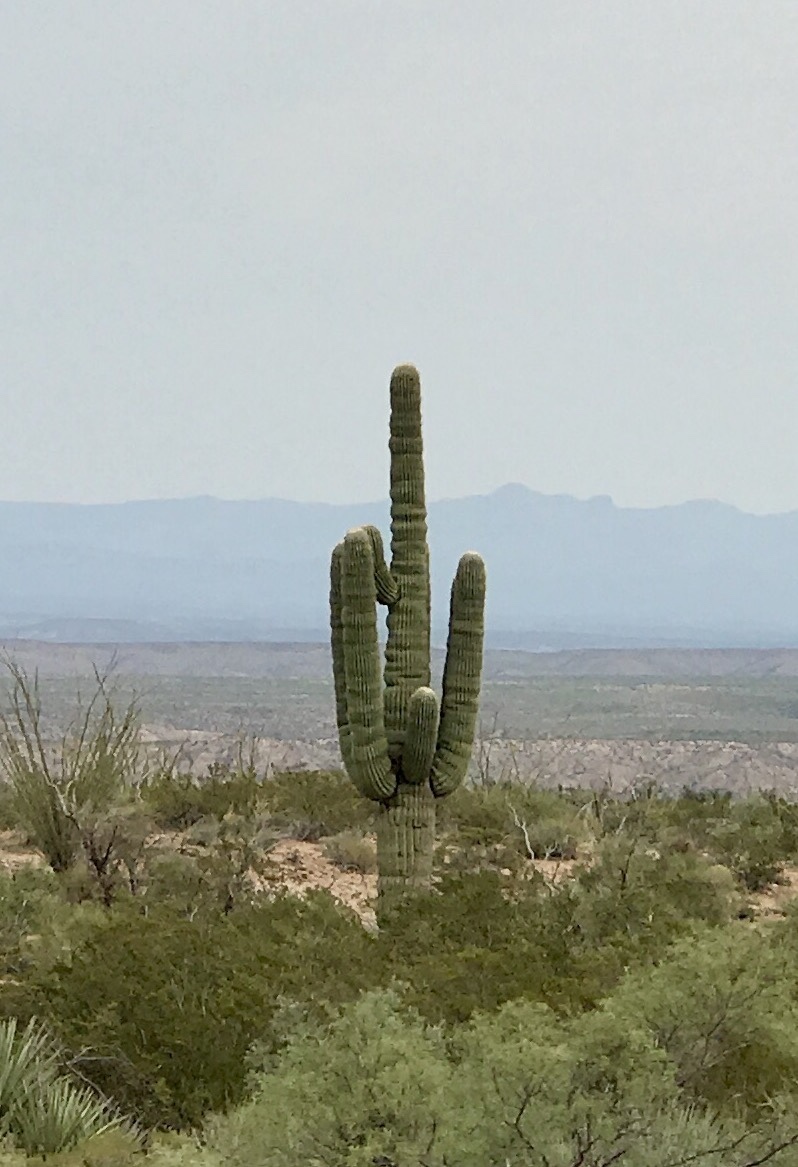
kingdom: Plantae
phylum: Tracheophyta
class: Magnoliopsida
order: Caryophyllales
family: Cactaceae
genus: Carnegiea
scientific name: Carnegiea gigantea
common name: Saguaro
